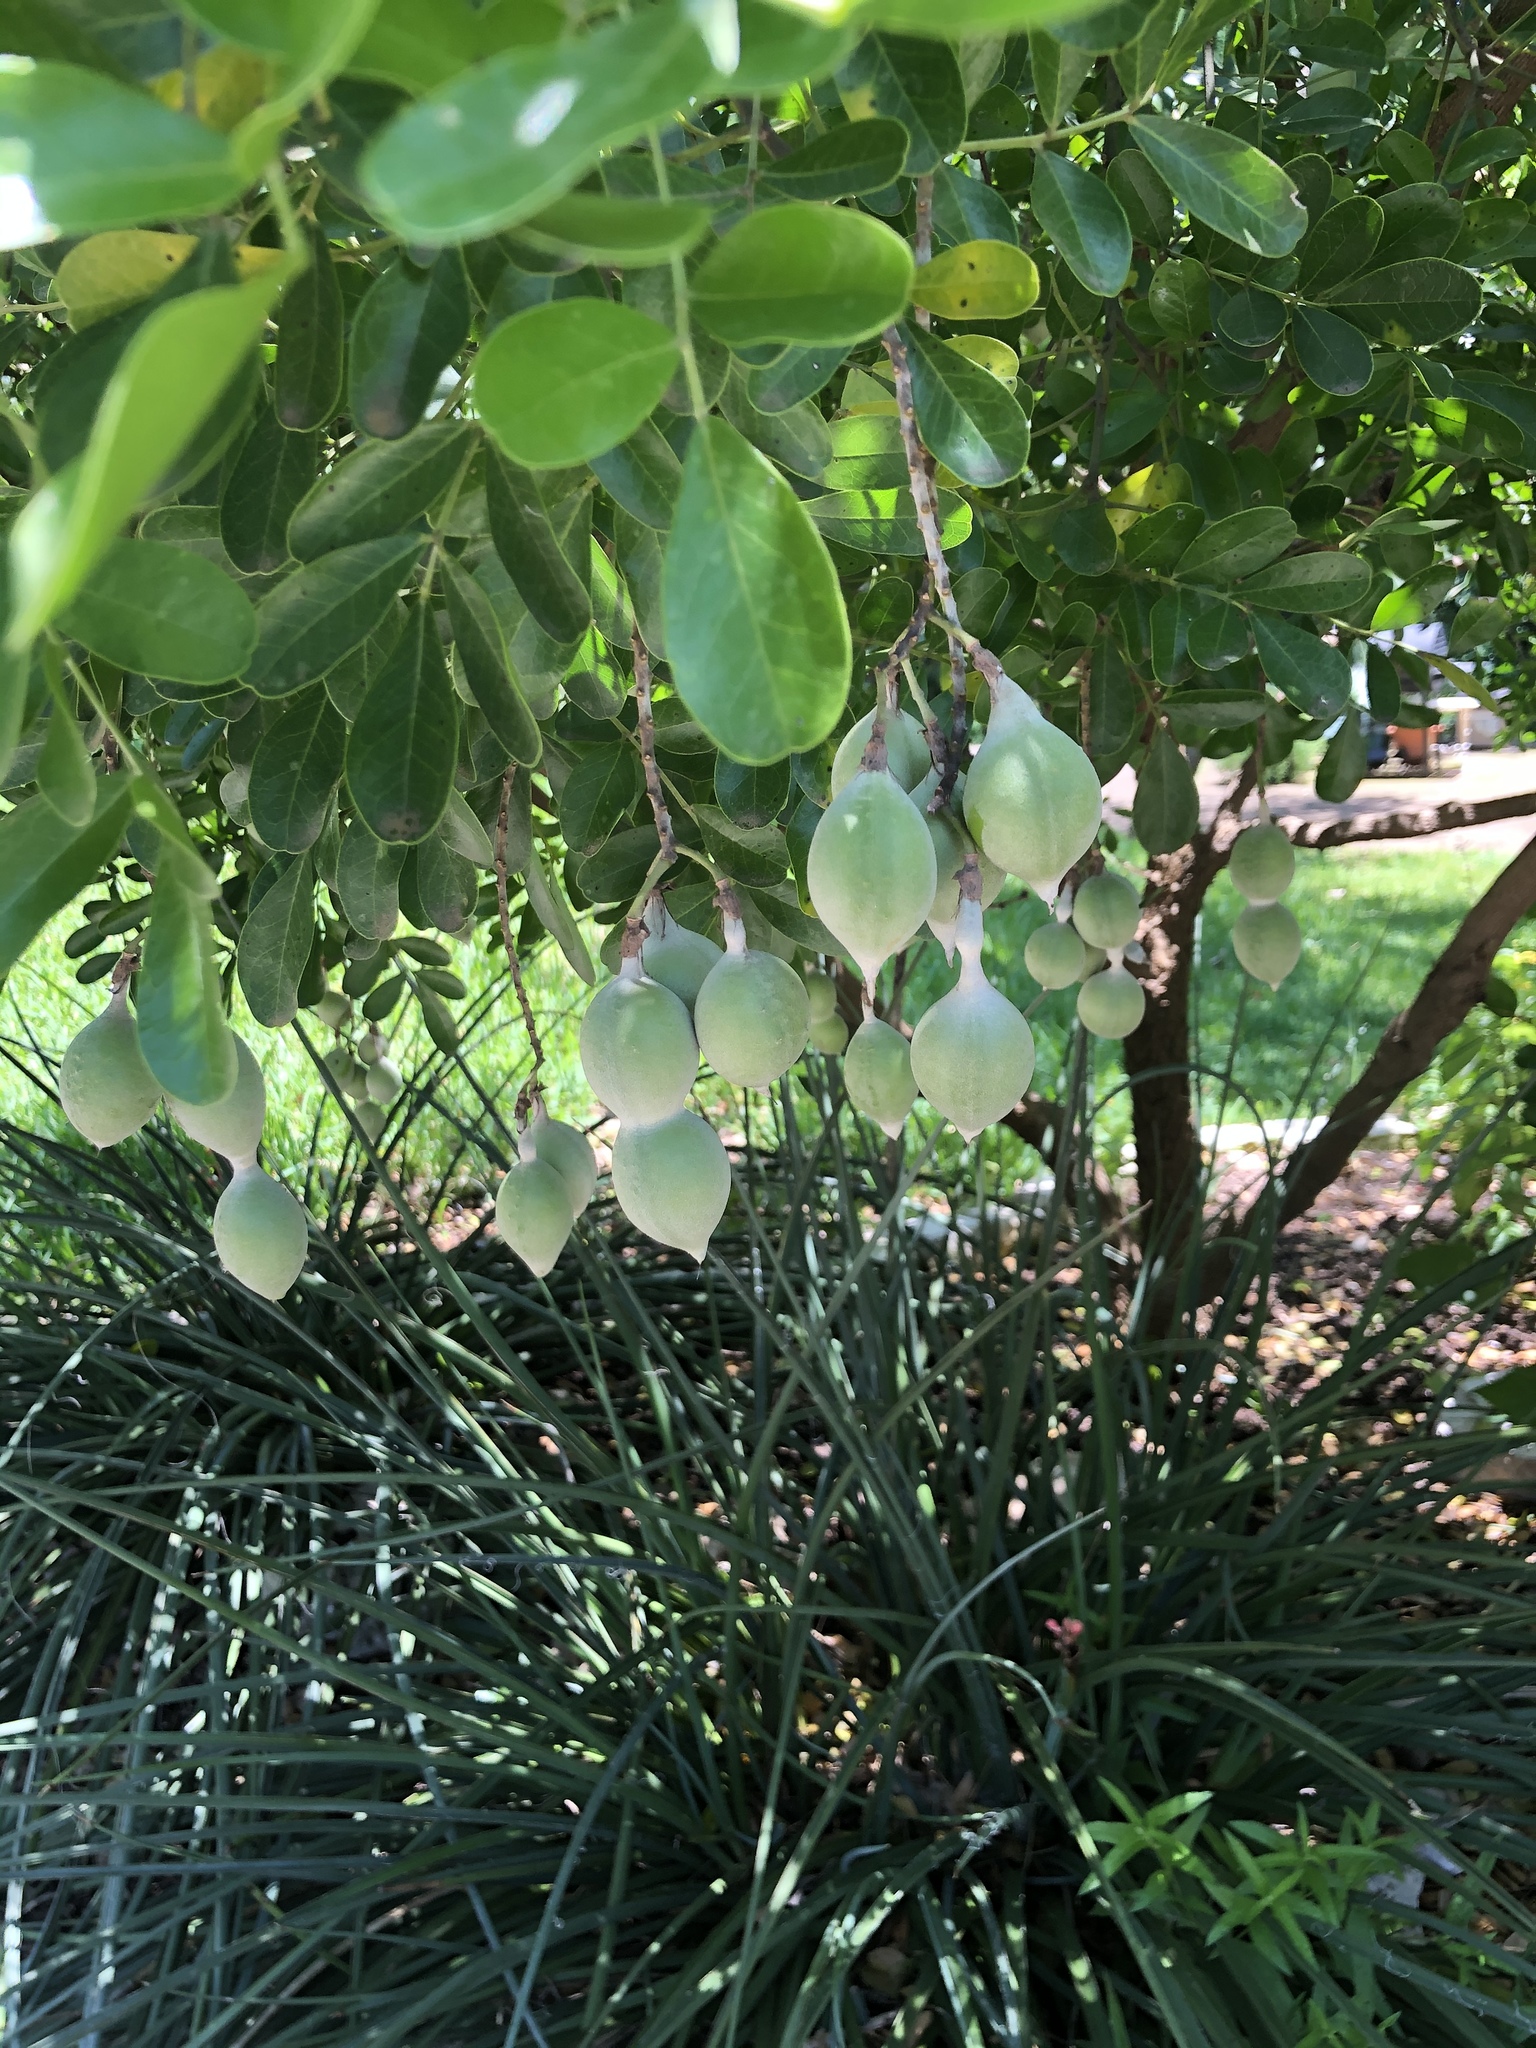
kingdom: Plantae
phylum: Tracheophyta
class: Magnoliopsida
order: Fabales
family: Fabaceae
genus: Dermatophyllum
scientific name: Dermatophyllum secundiflorum
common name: Texas-mountain-laurel
